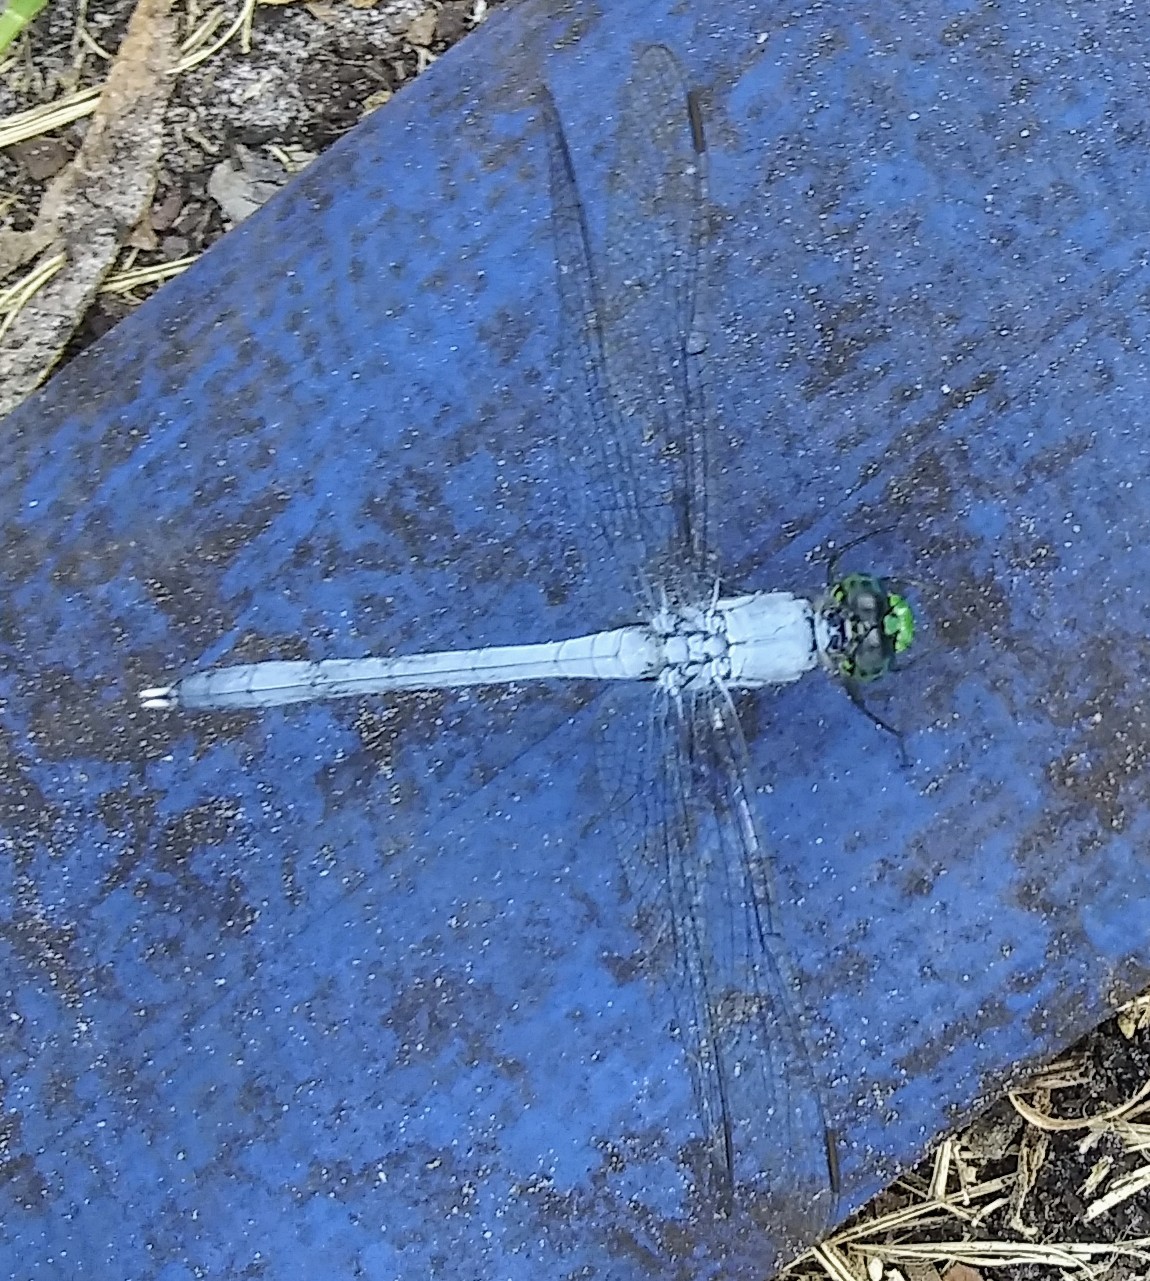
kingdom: Animalia
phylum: Arthropoda
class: Insecta
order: Odonata
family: Libellulidae
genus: Erythemis
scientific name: Erythemis simplicicollis
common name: Eastern pondhawk
